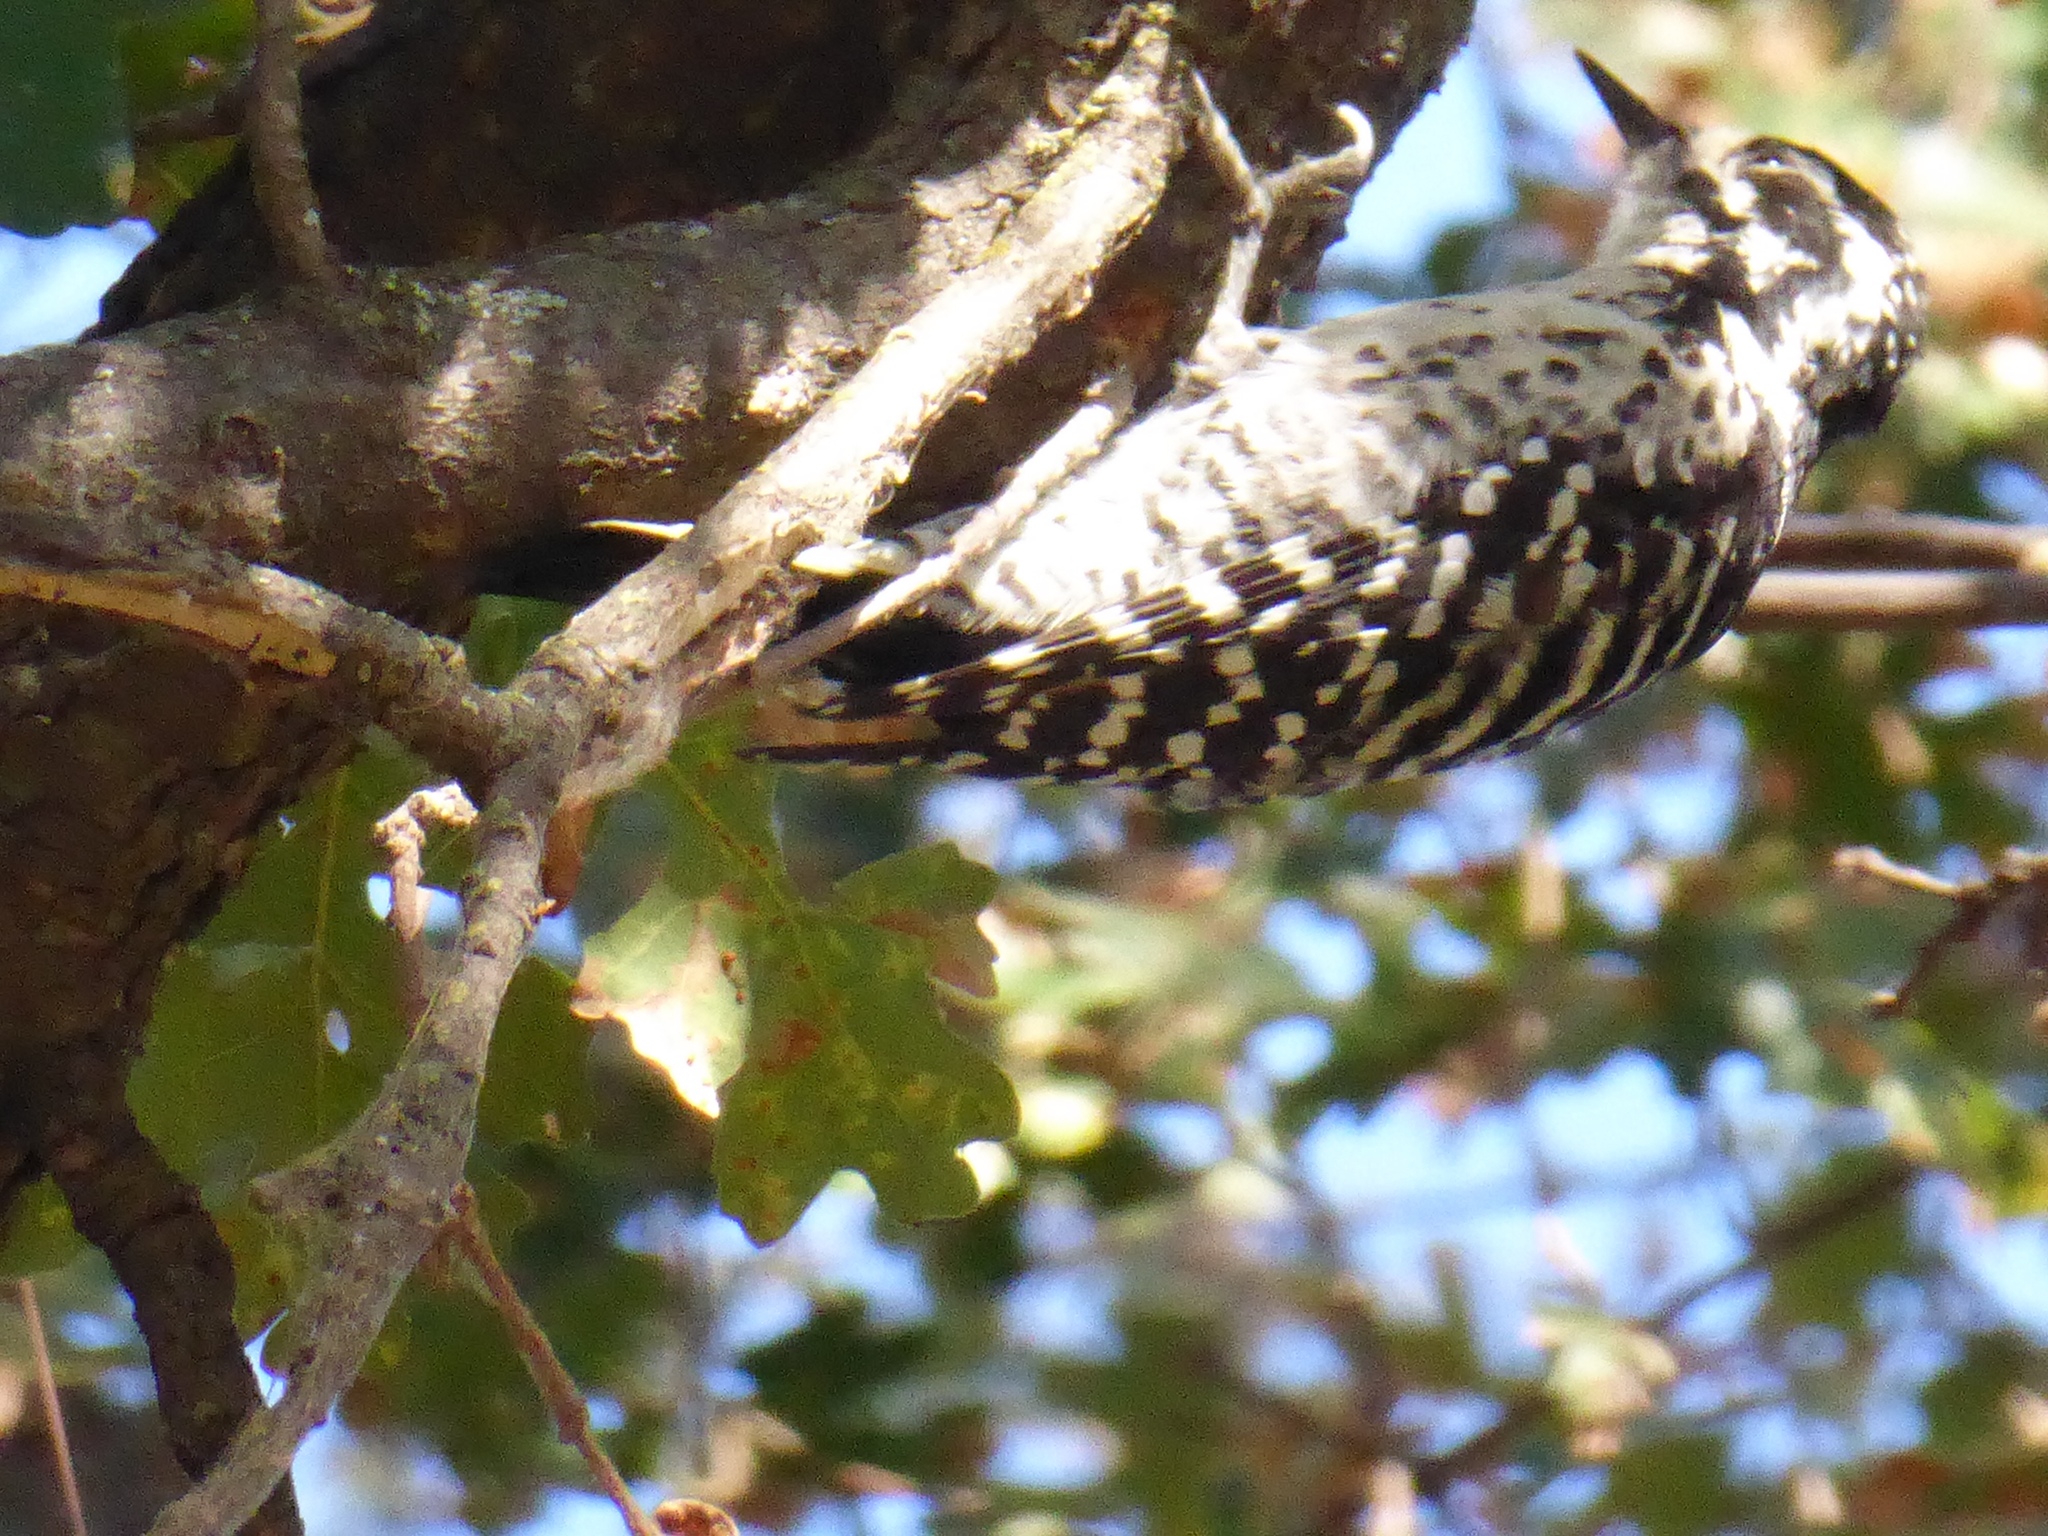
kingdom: Animalia
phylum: Chordata
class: Aves
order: Piciformes
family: Picidae
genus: Dryobates
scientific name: Dryobates nuttallii
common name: Nuttall's woodpecker
